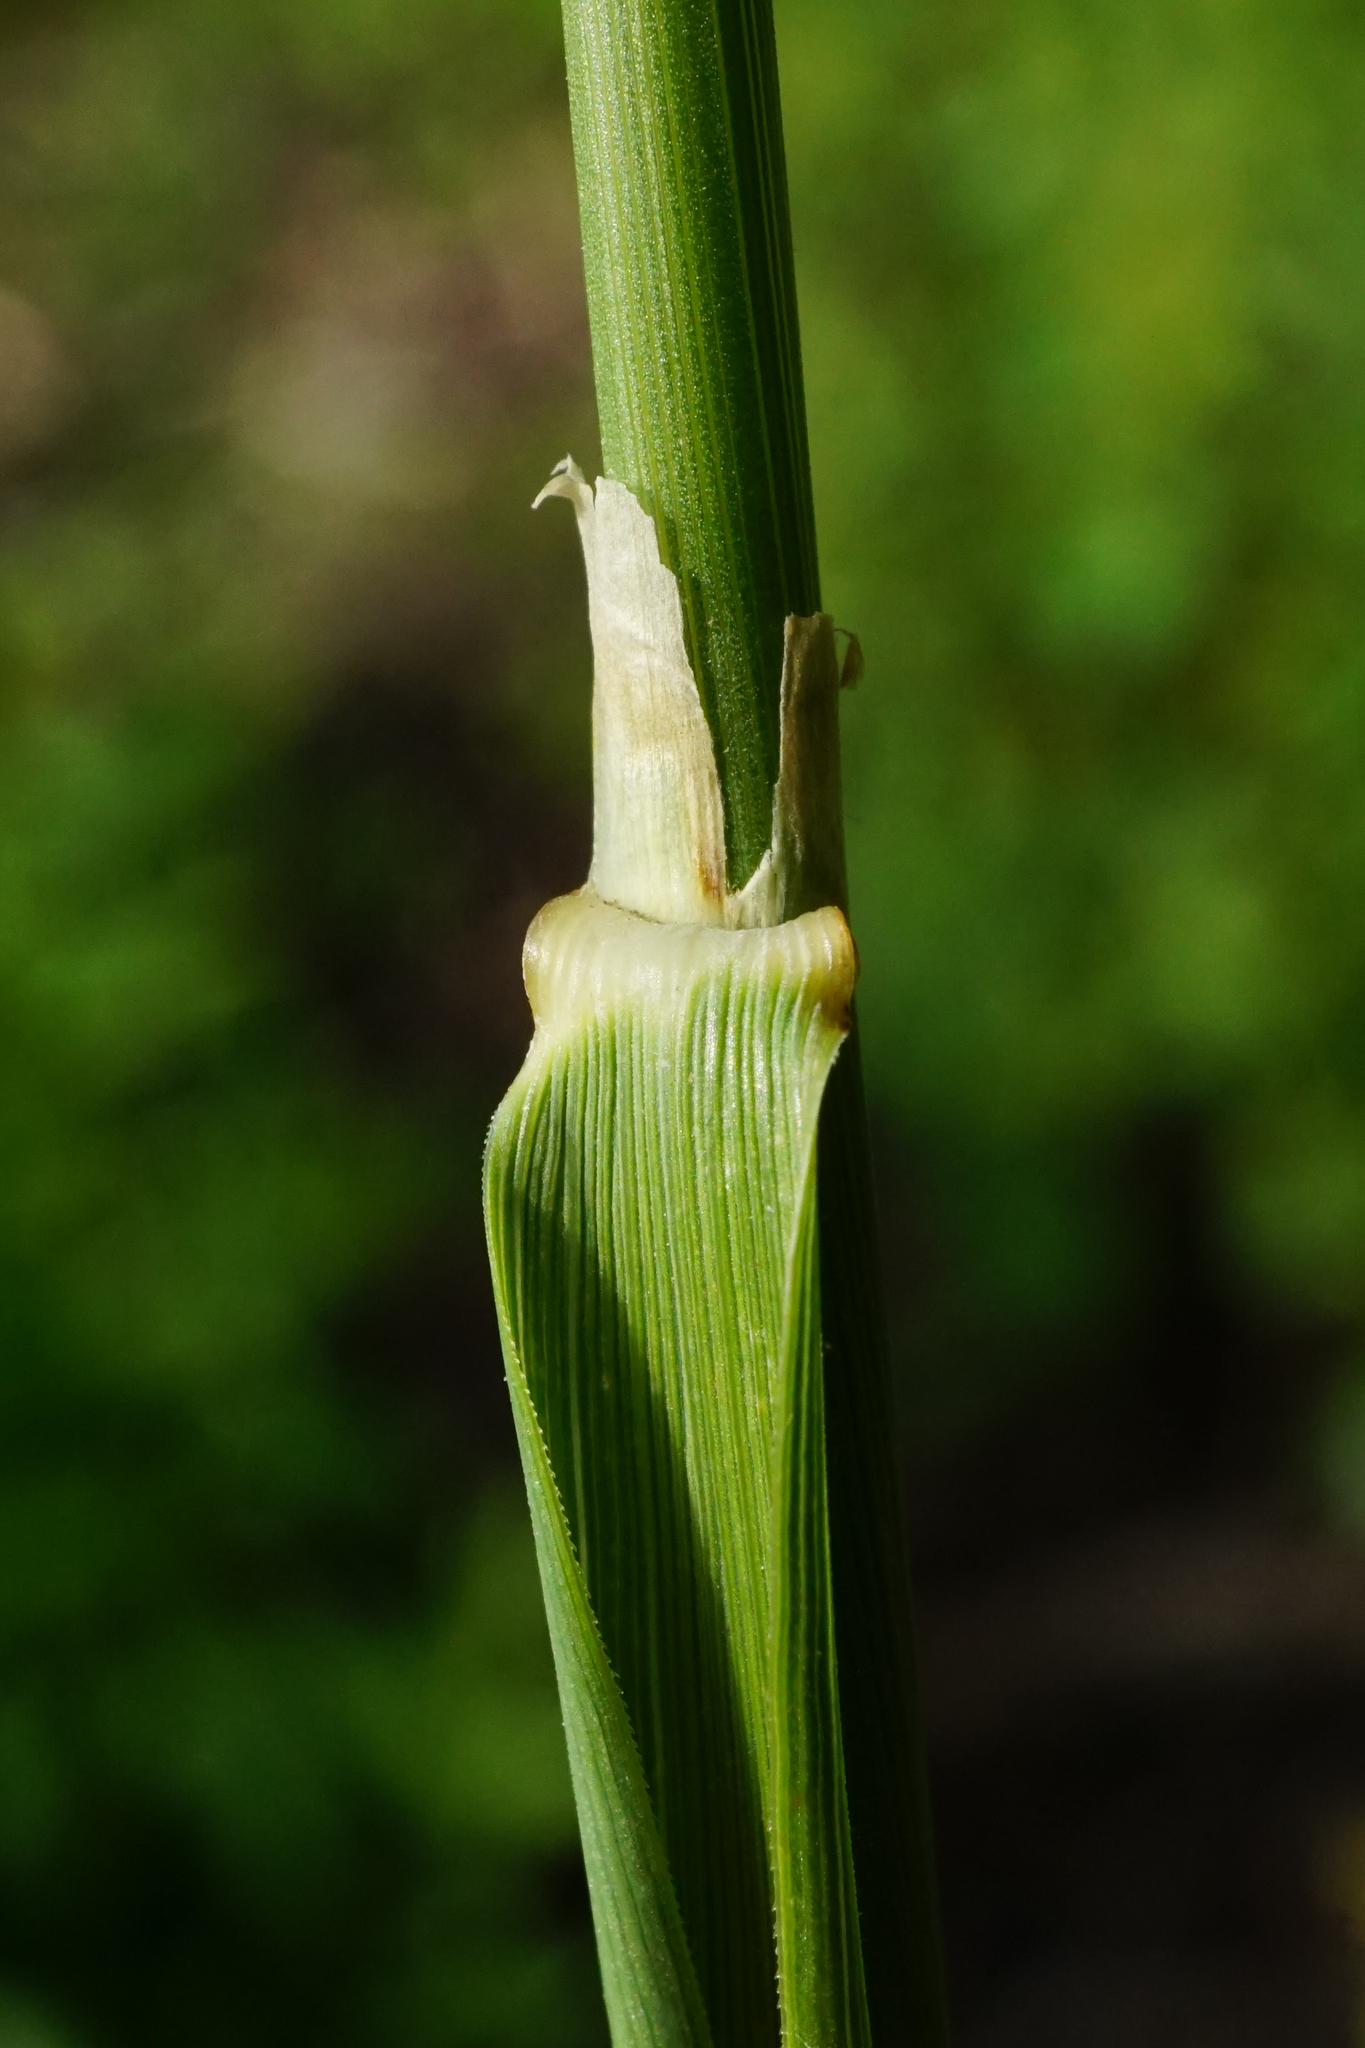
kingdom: Plantae
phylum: Tracheophyta
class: Liliopsida
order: Poales
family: Poaceae
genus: Calamagrostis
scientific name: Calamagrostis epigejos
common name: Wood small-reed
